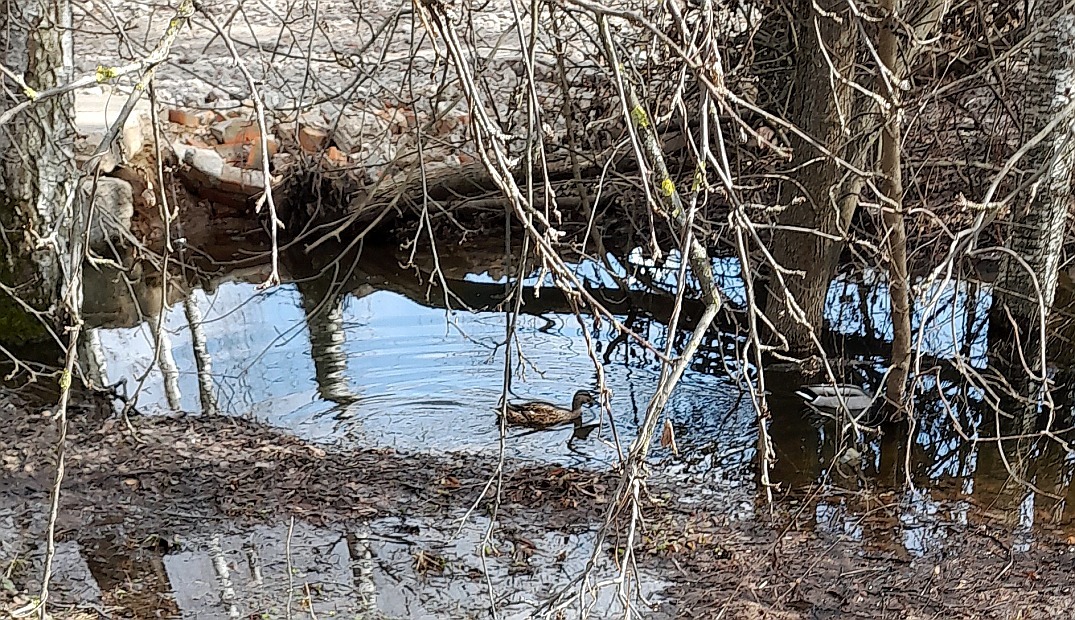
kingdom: Animalia
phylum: Chordata
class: Aves
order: Anseriformes
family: Anatidae
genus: Anas
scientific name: Anas platyrhynchos
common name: Mallard
